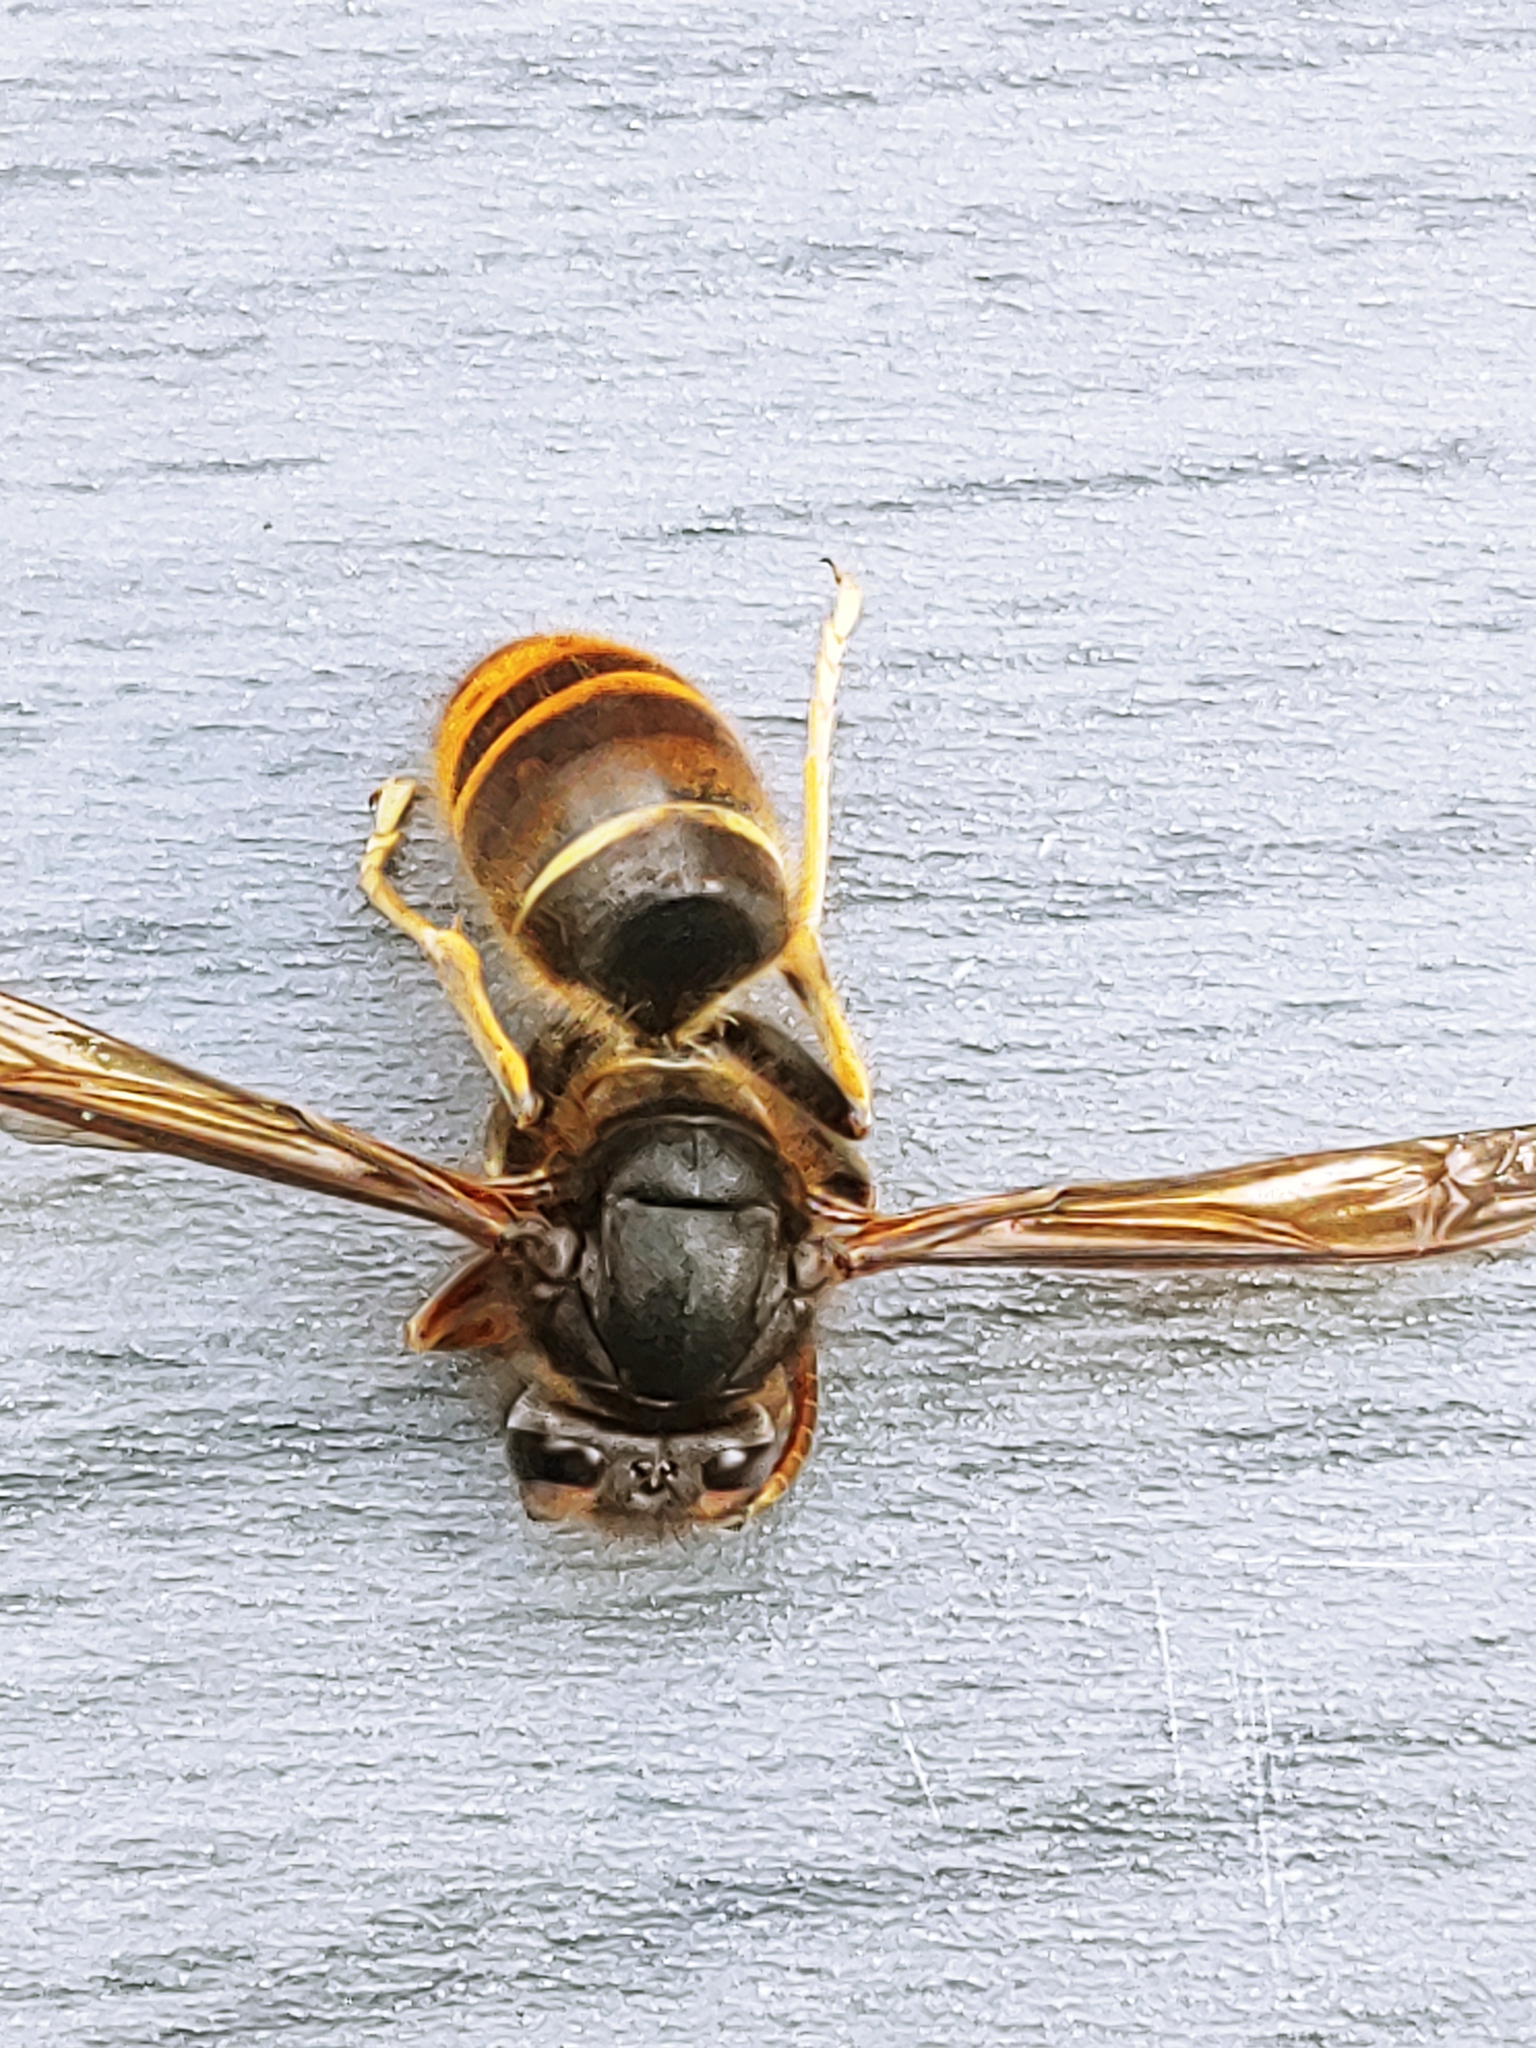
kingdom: Animalia
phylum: Arthropoda
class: Insecta
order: Hymenoptera
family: Vespidae
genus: Vespa
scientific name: Vespa velutina
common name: Asian hornet
